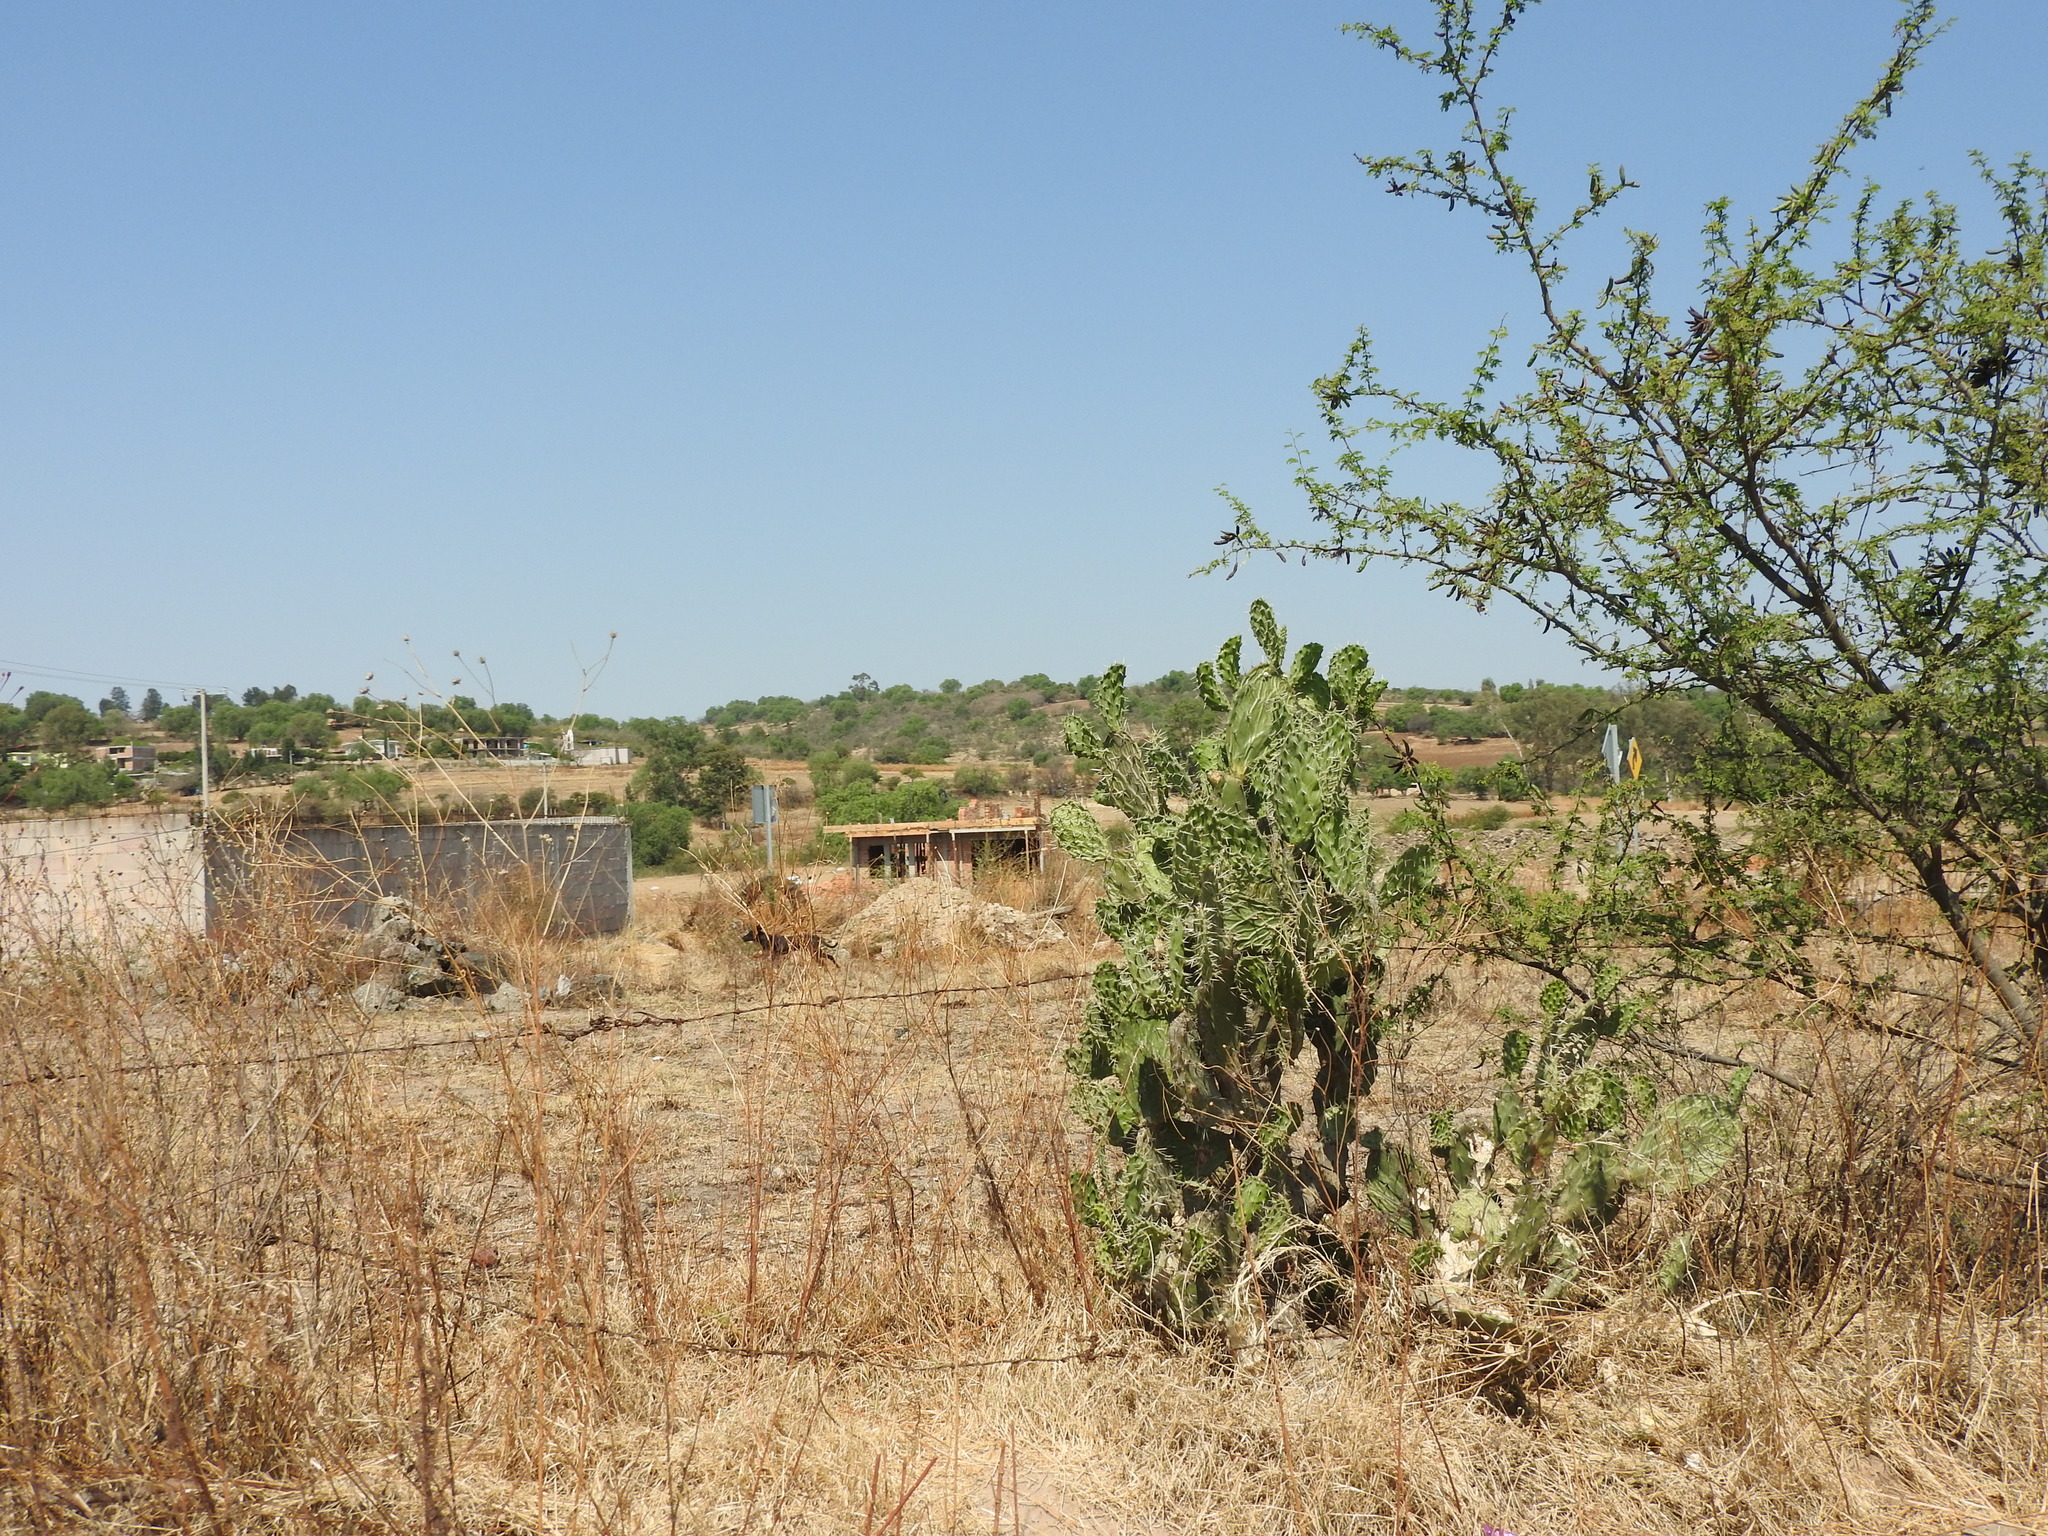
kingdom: Plantae
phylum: Tracheophyta
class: Magnoliopsida
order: Caryophyllales
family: Cactaceae
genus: Opuntia
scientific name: Opuntia lasiacantha
